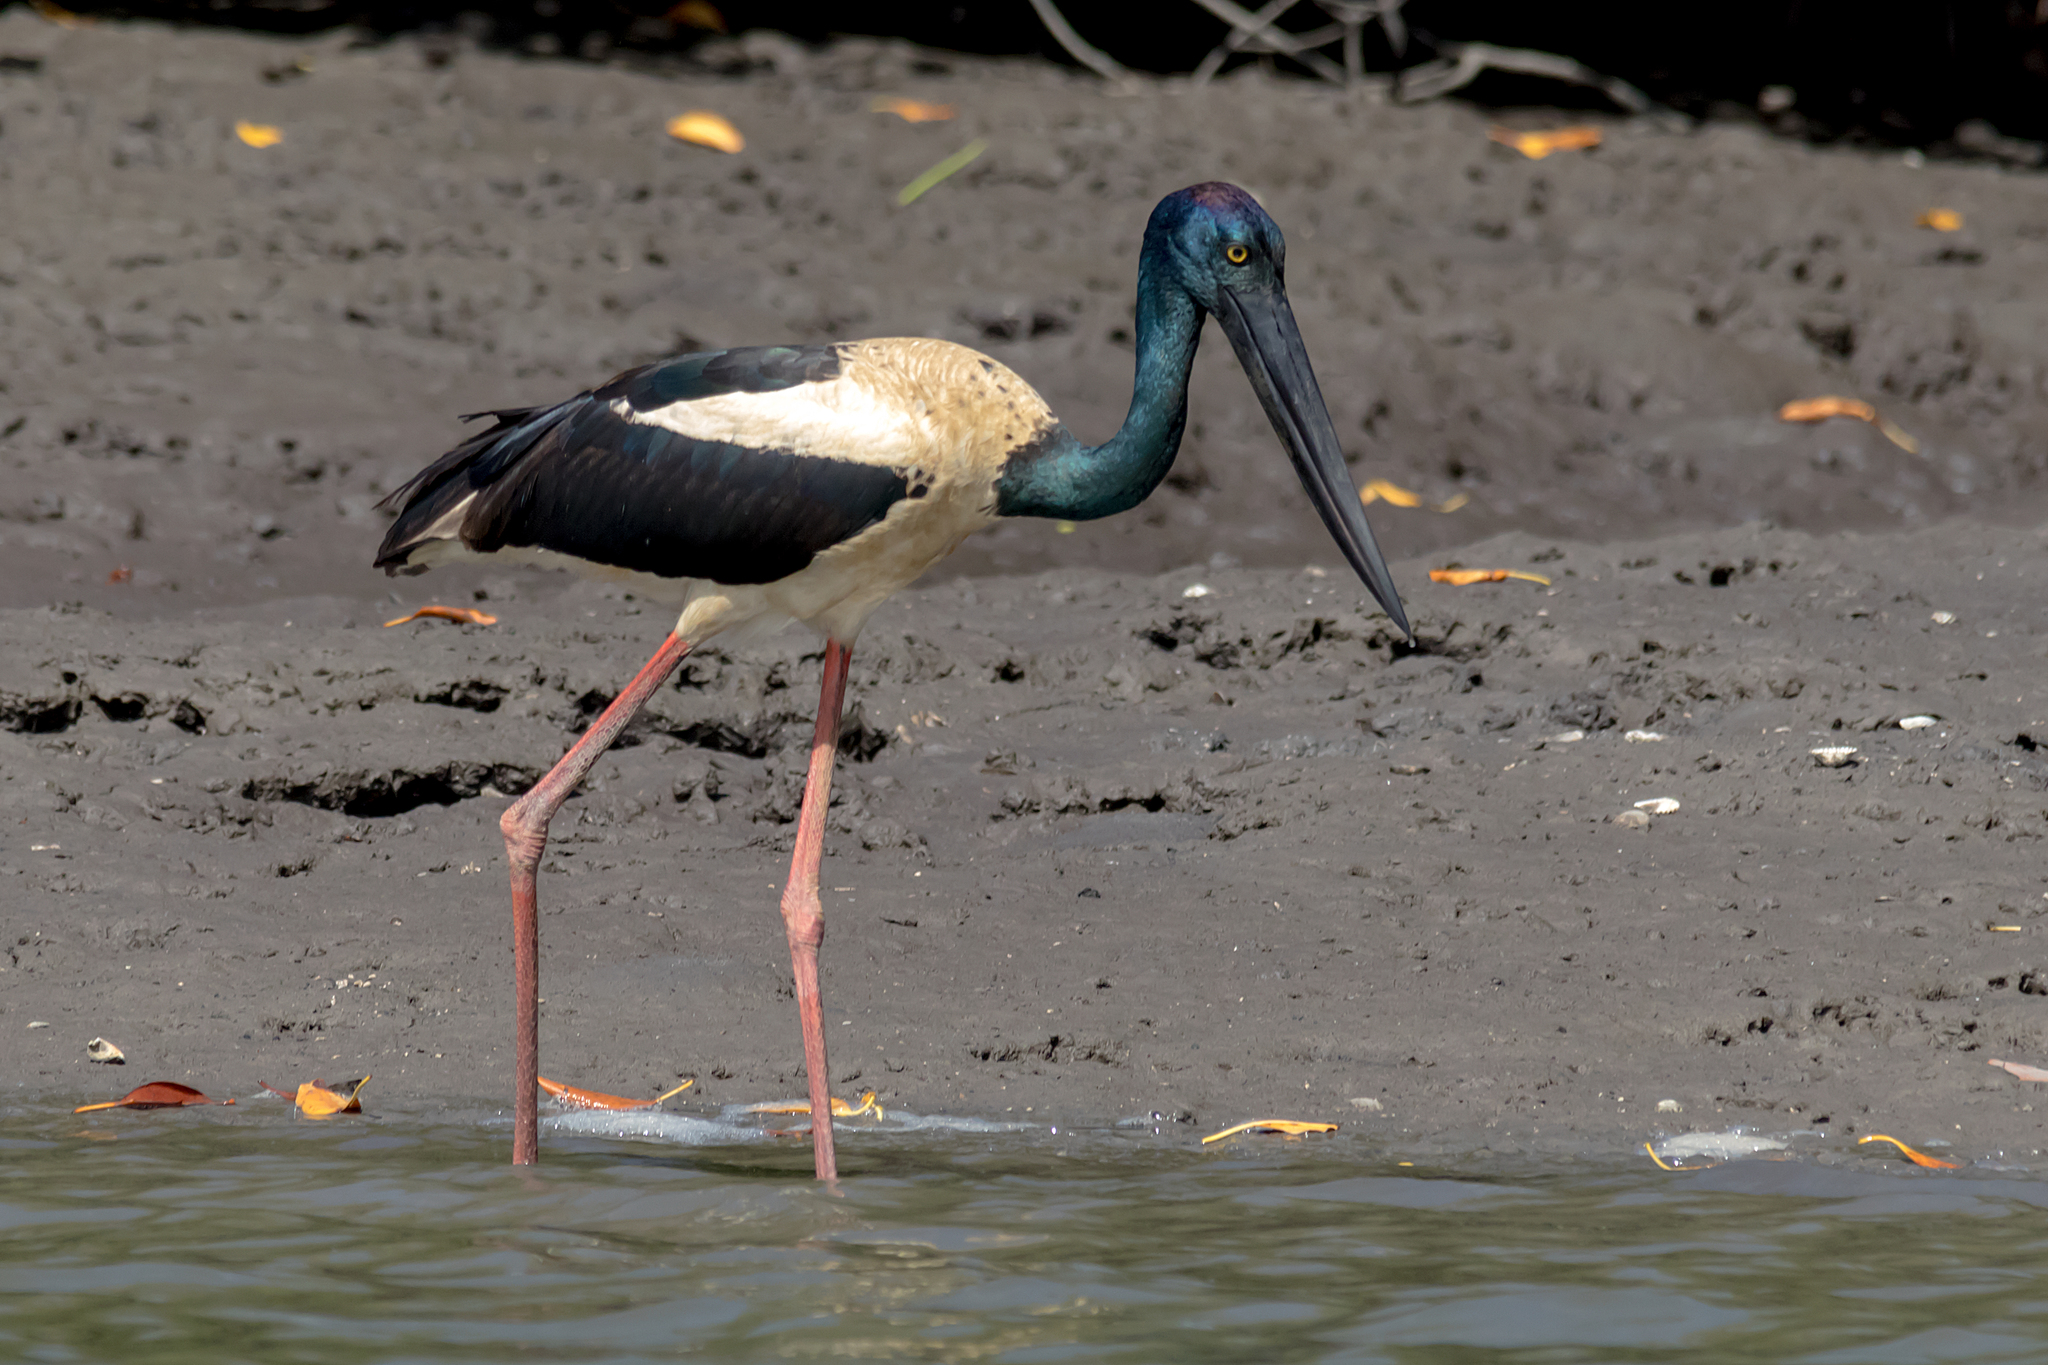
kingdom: Animalia
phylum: Chordata
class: Aves
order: Ciconiiformes
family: Ciconiidae
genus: Ephippiorhynchus
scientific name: Ephippiorhynchus asiaticus
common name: Black-necked stork
